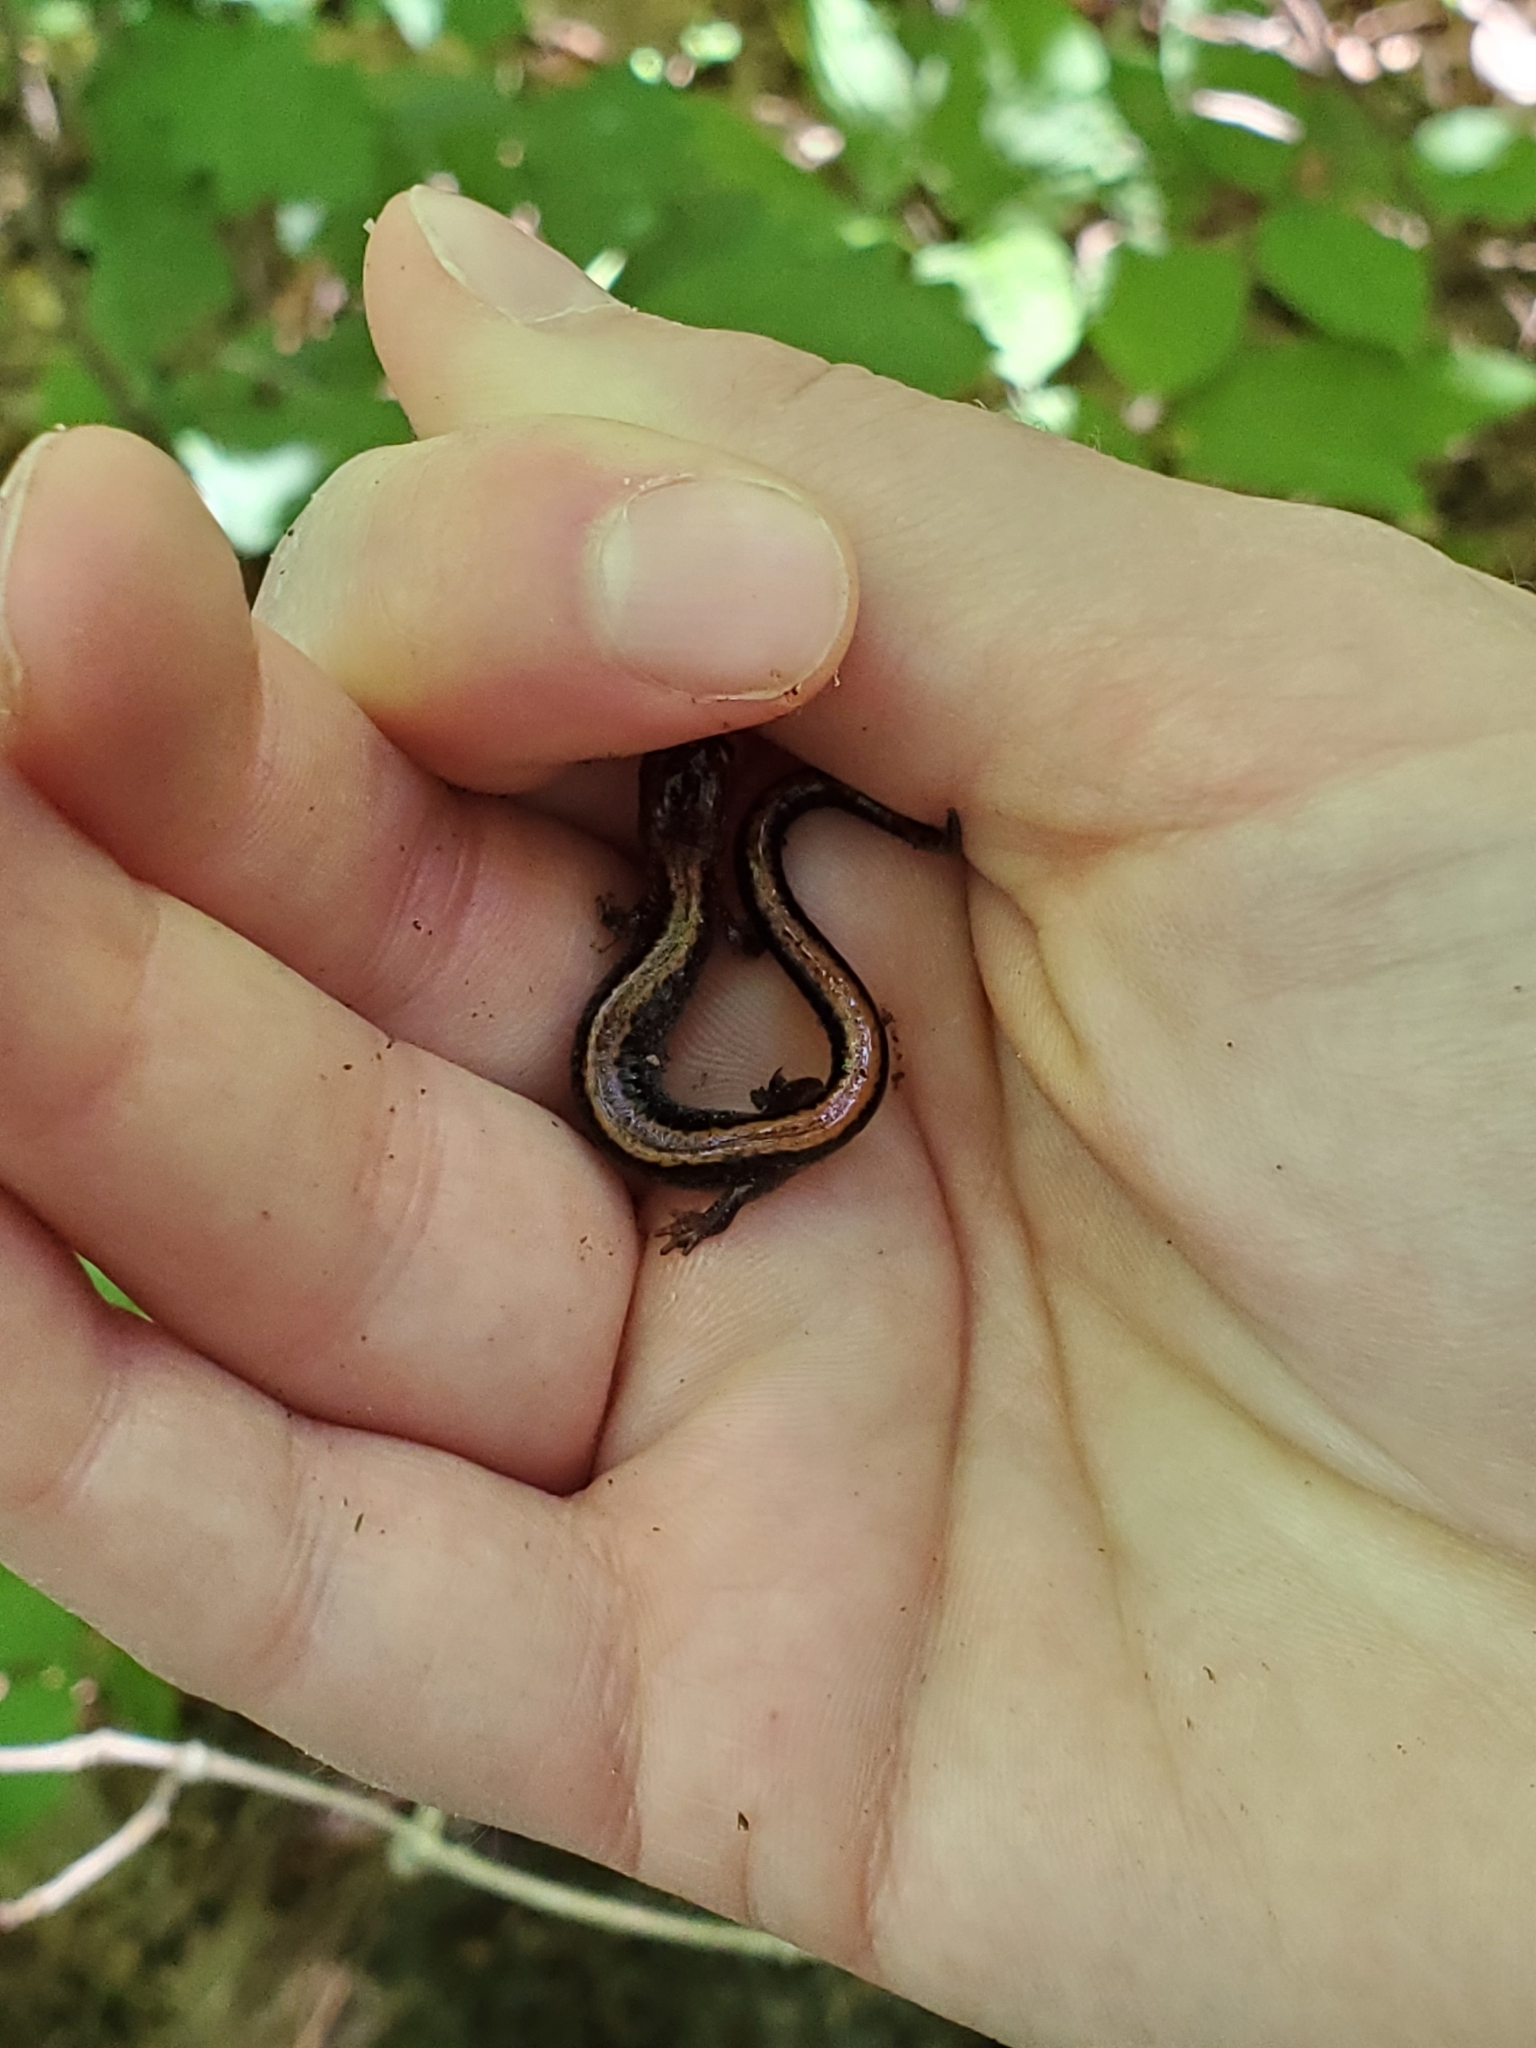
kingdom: Animalia
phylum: Chordata
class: Amphibia
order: Caudata
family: Plethodontidae
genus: Plethodon
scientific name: Plethodon cinereus
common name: Redback salamander
